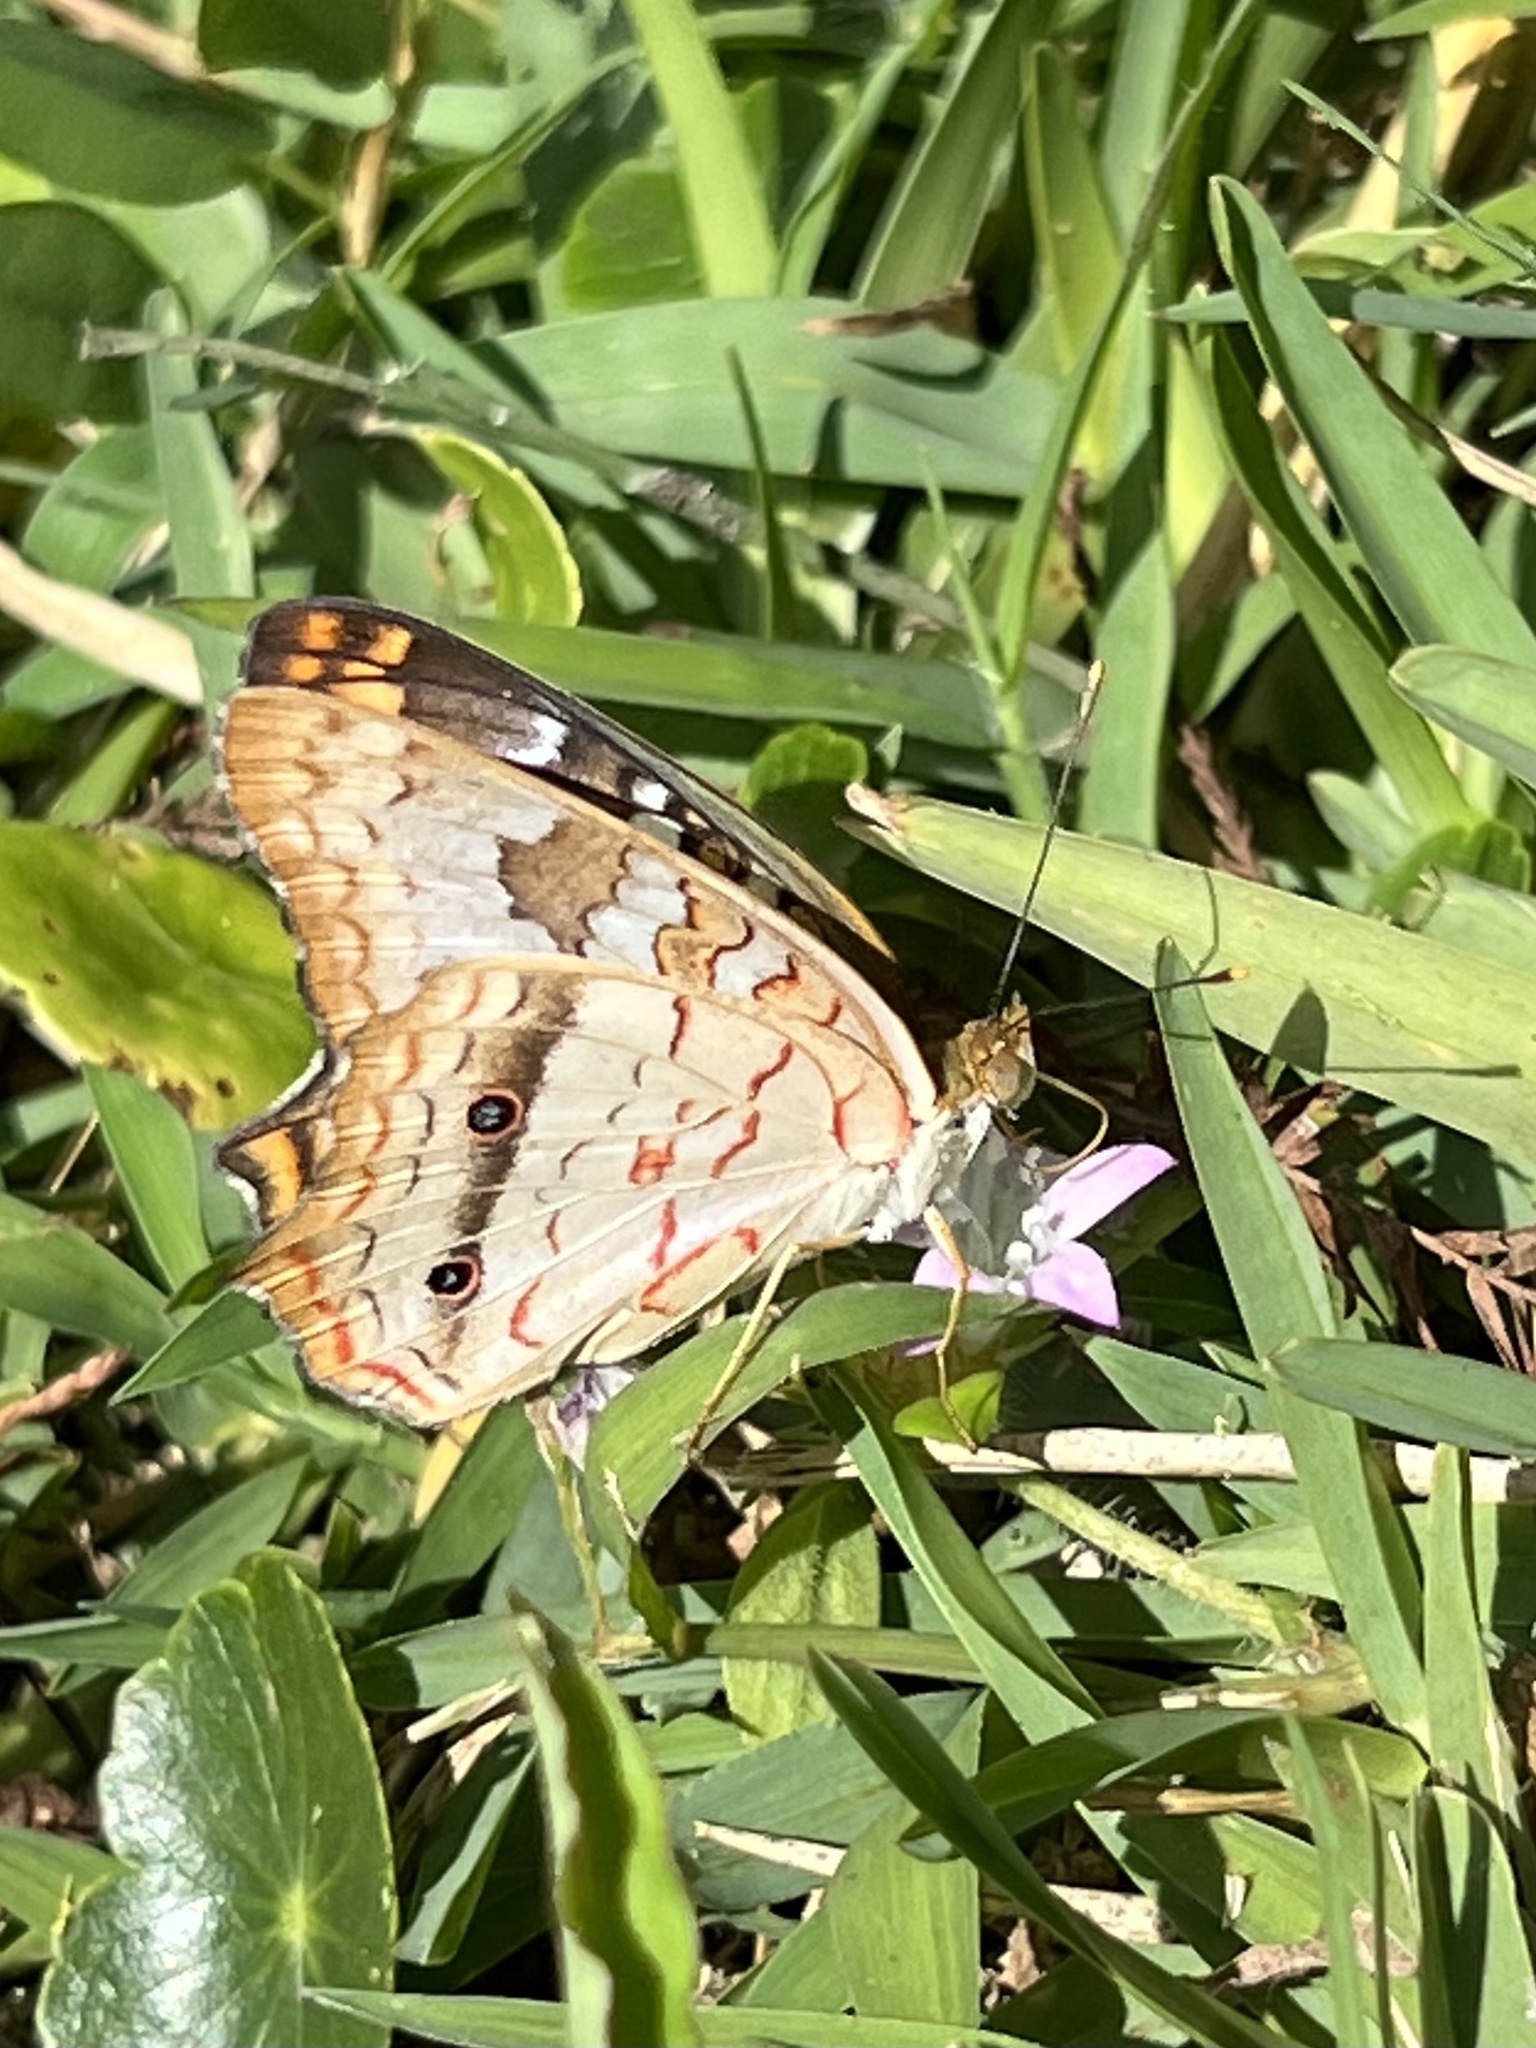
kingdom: Animalia
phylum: Arthropoda
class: Insecta
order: Lepidoptera
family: Nymphalidae
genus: Anartia
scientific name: Anartia jatrophae
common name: White peacock
